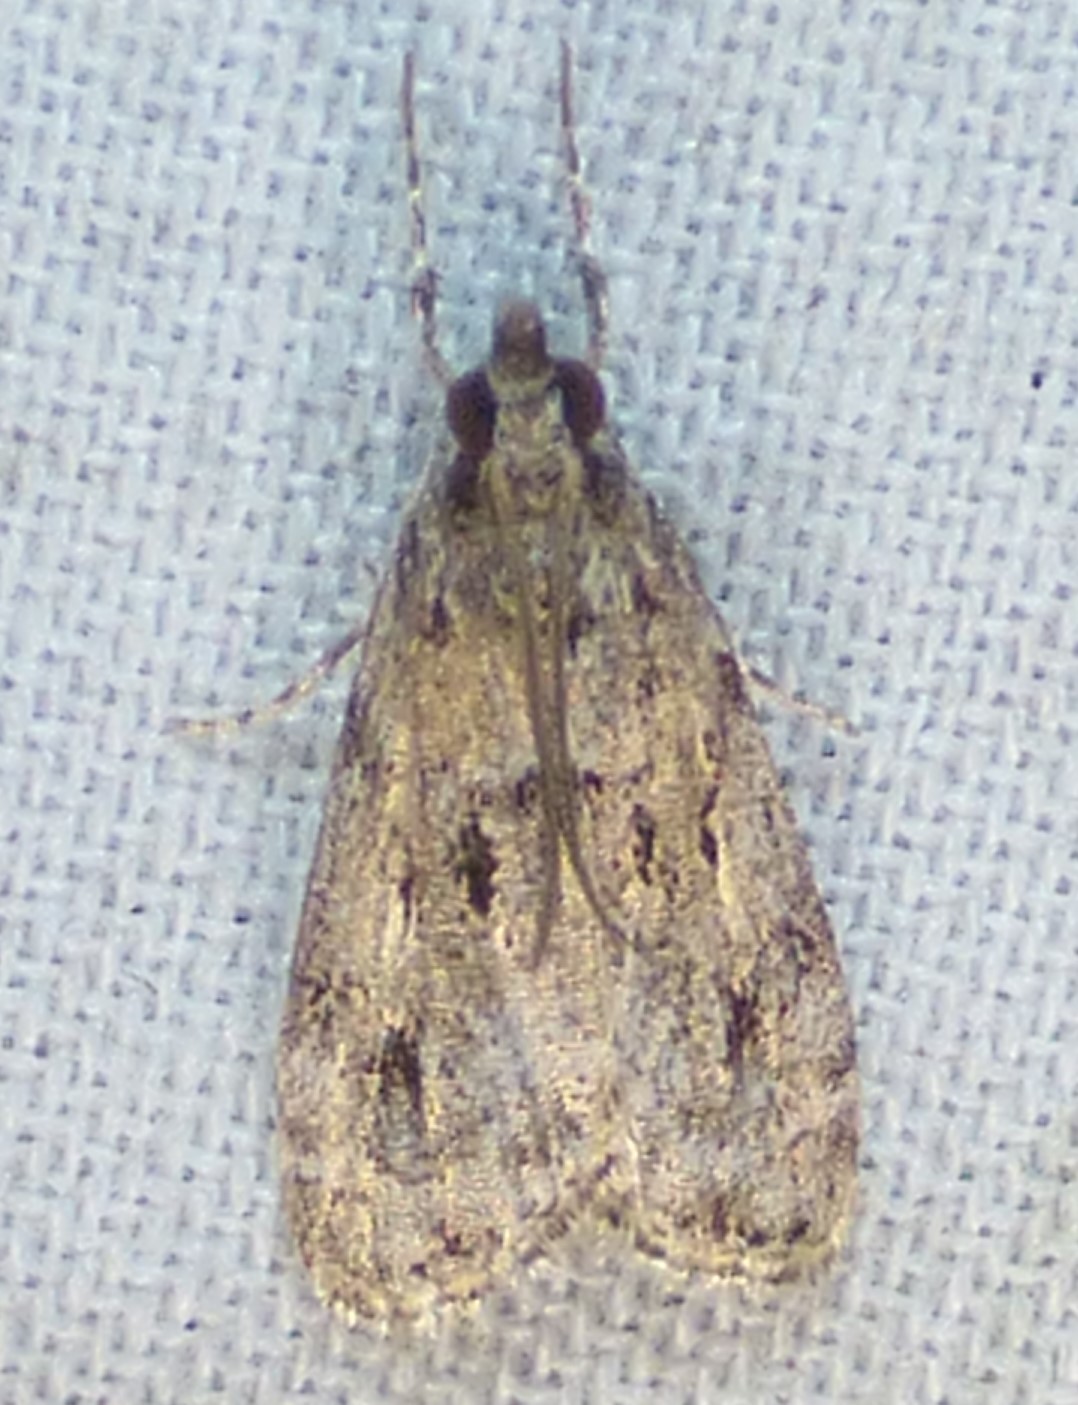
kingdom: Animalia
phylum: Arthropoda
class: Insecta
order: Lepidoptera
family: Crambidae
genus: Eudonia
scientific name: Eudonia heterosalis
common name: Mcdunnough's eudonia
